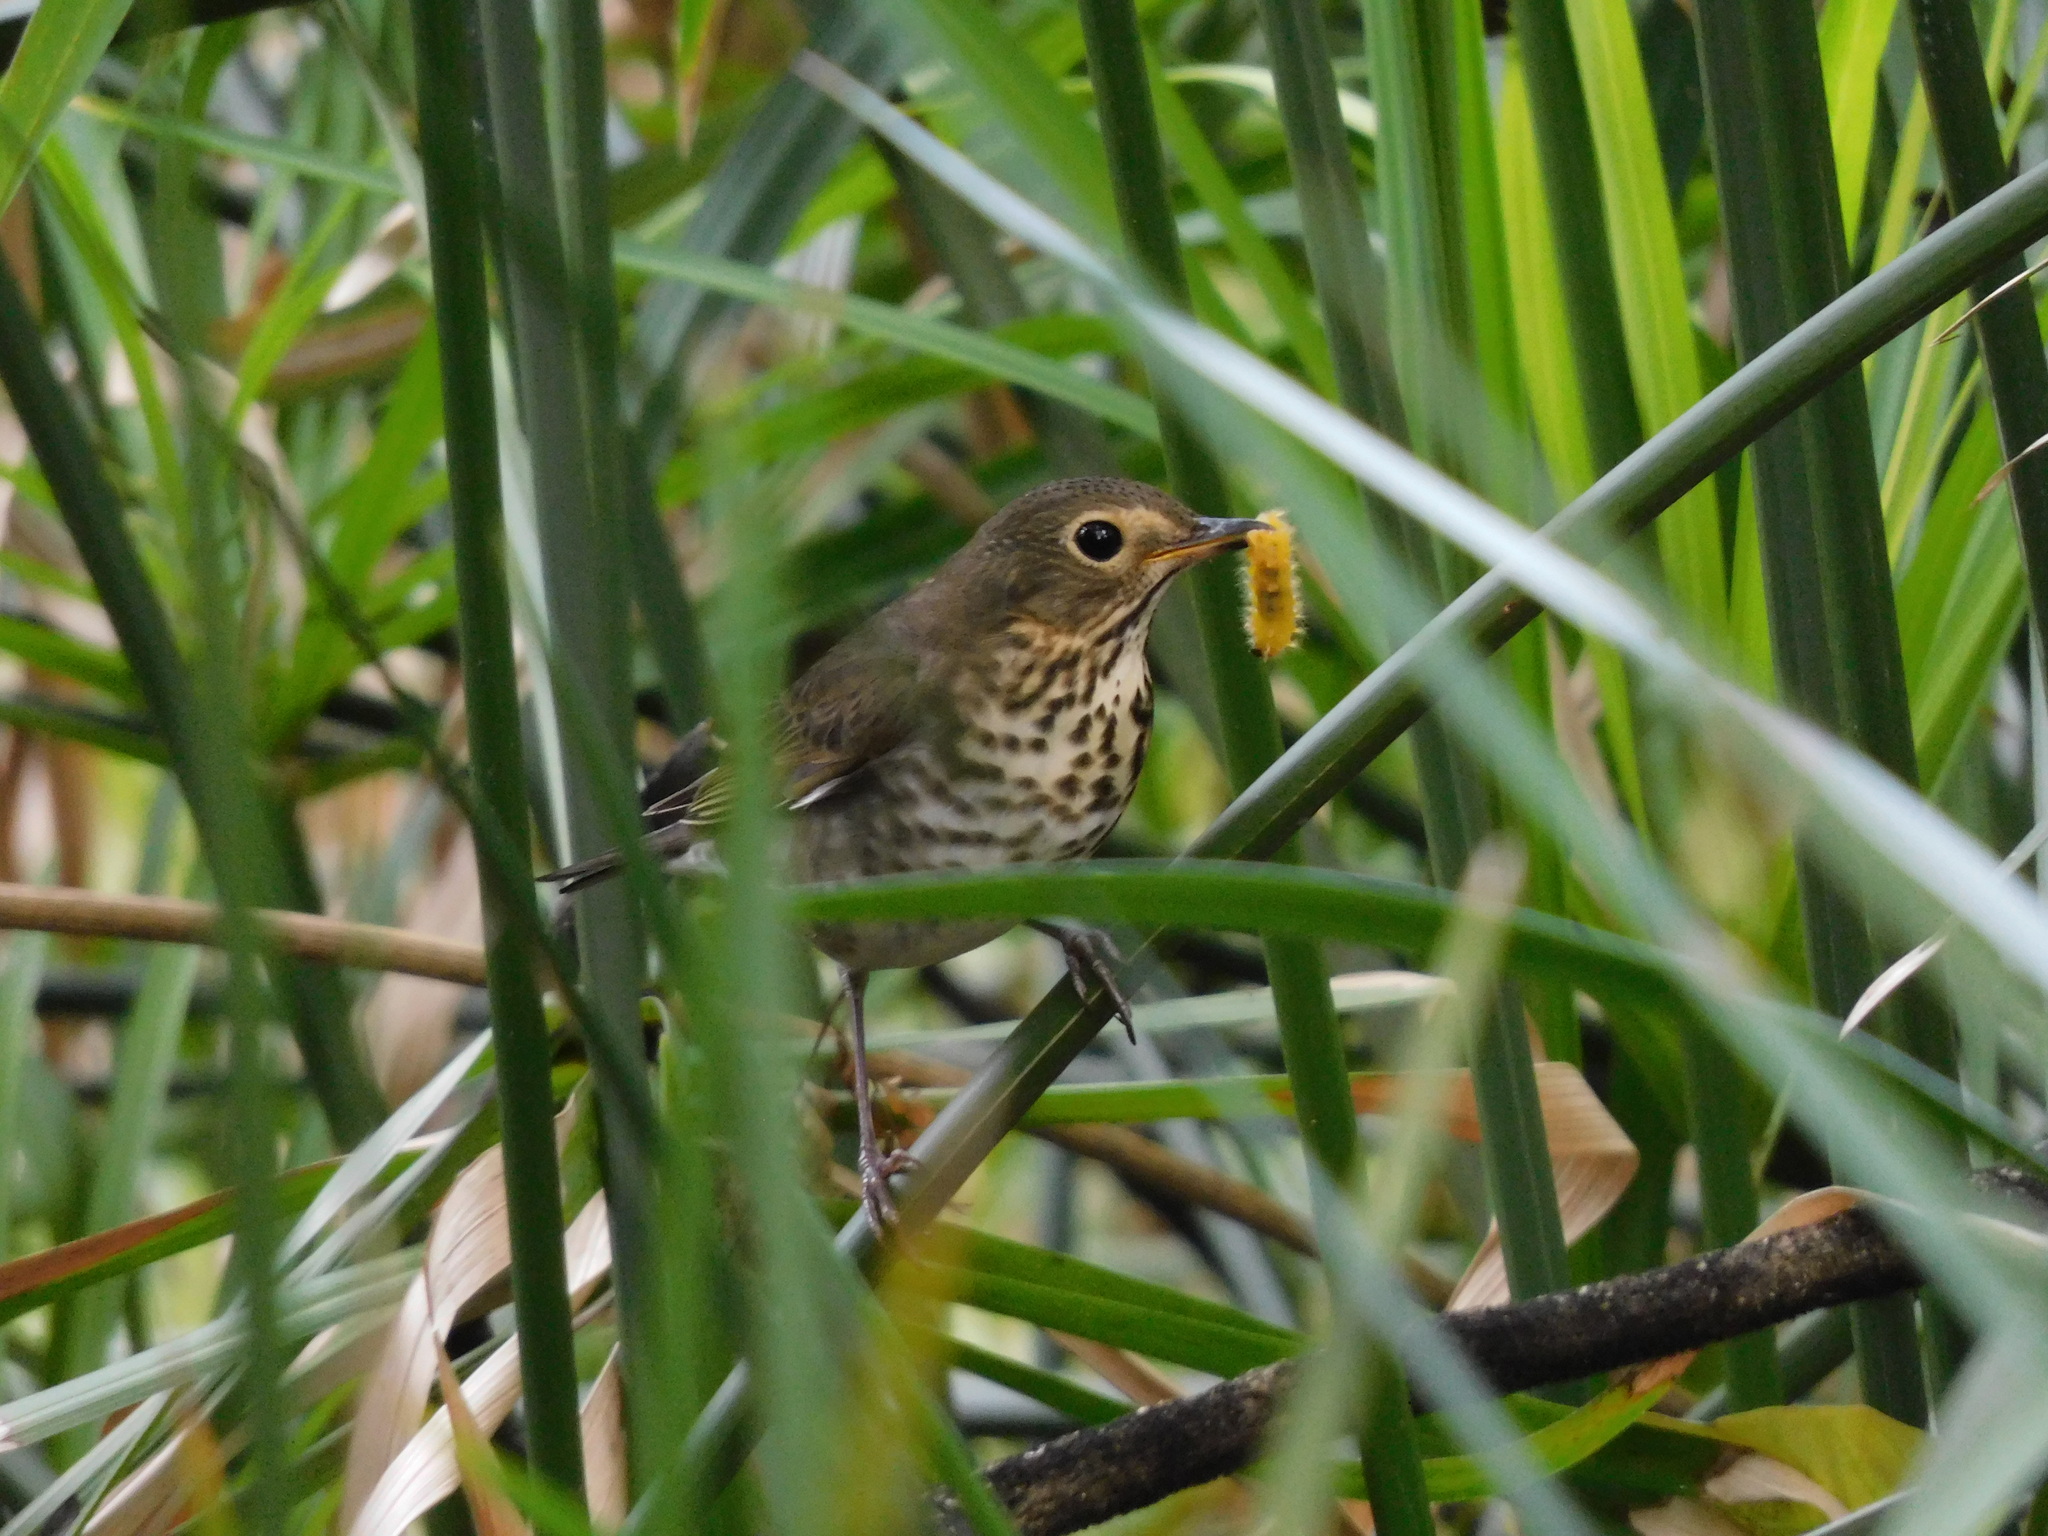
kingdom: Animalia
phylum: Chordata
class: Aves
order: Passeriformes
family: Turdidae
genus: Catharus
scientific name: Catharus ustulatus
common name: Swainson's thrush
